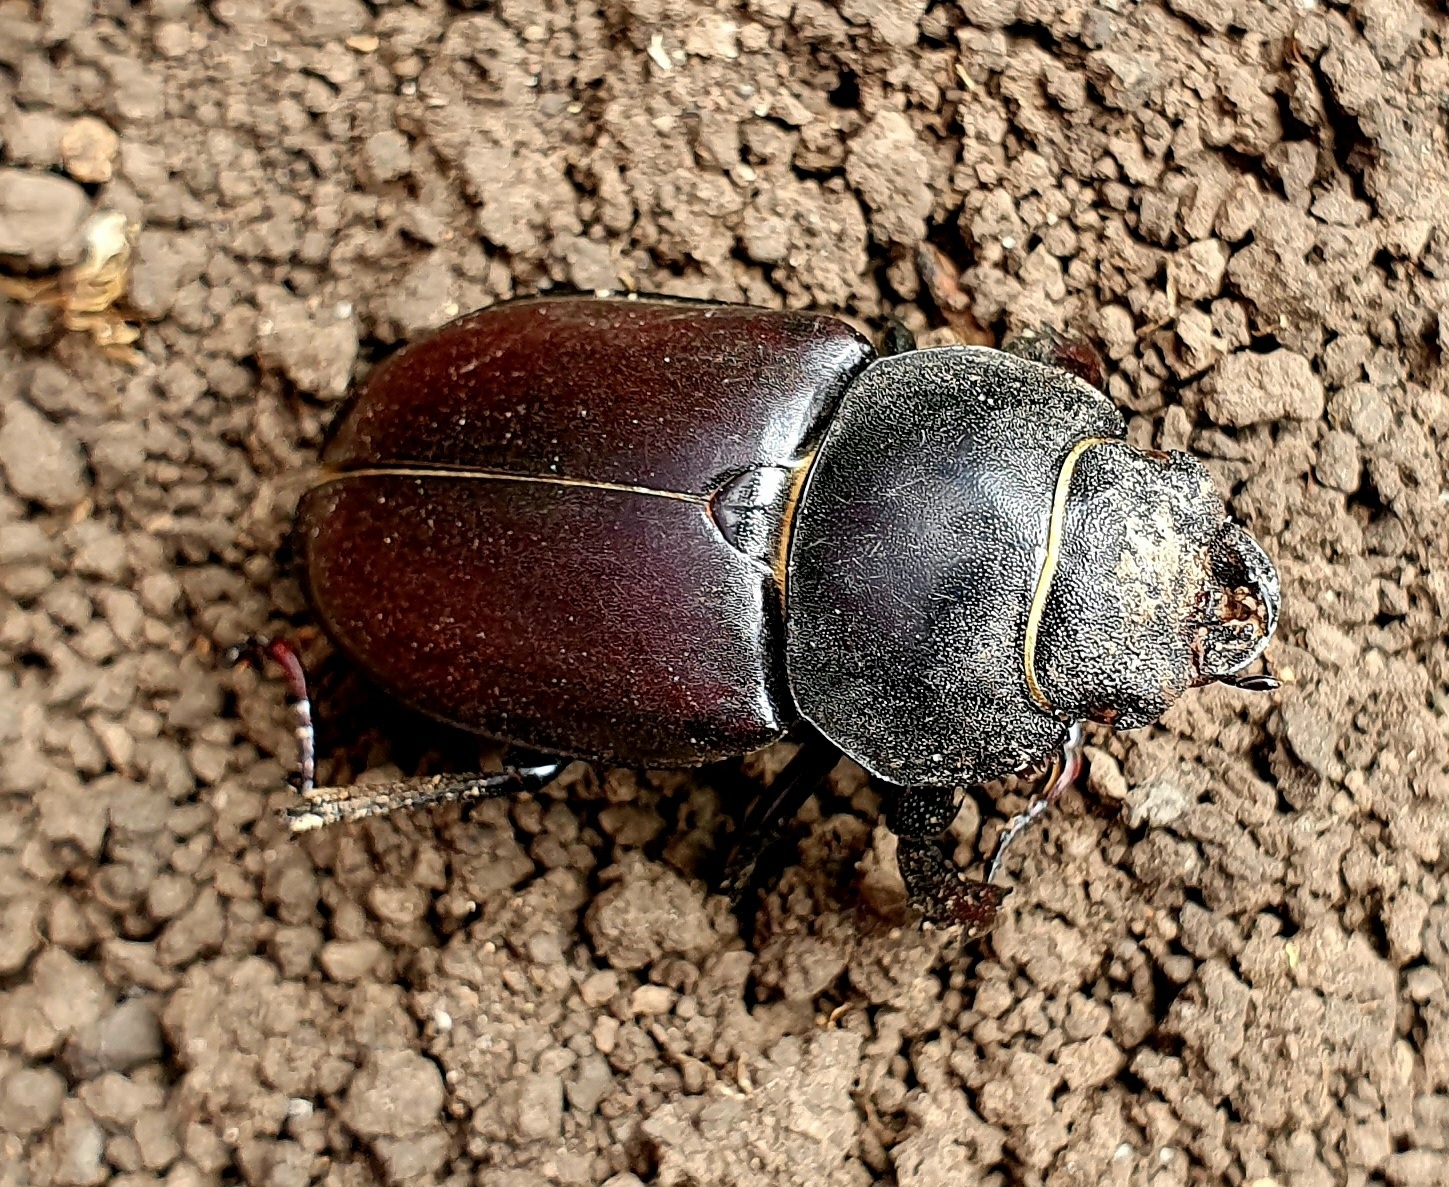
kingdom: Animalia
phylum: Arthropoda
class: Insecta
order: Coleoptera
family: Lucanidae
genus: Lucanus
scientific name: Lucanus cervus
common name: Stag beetle
